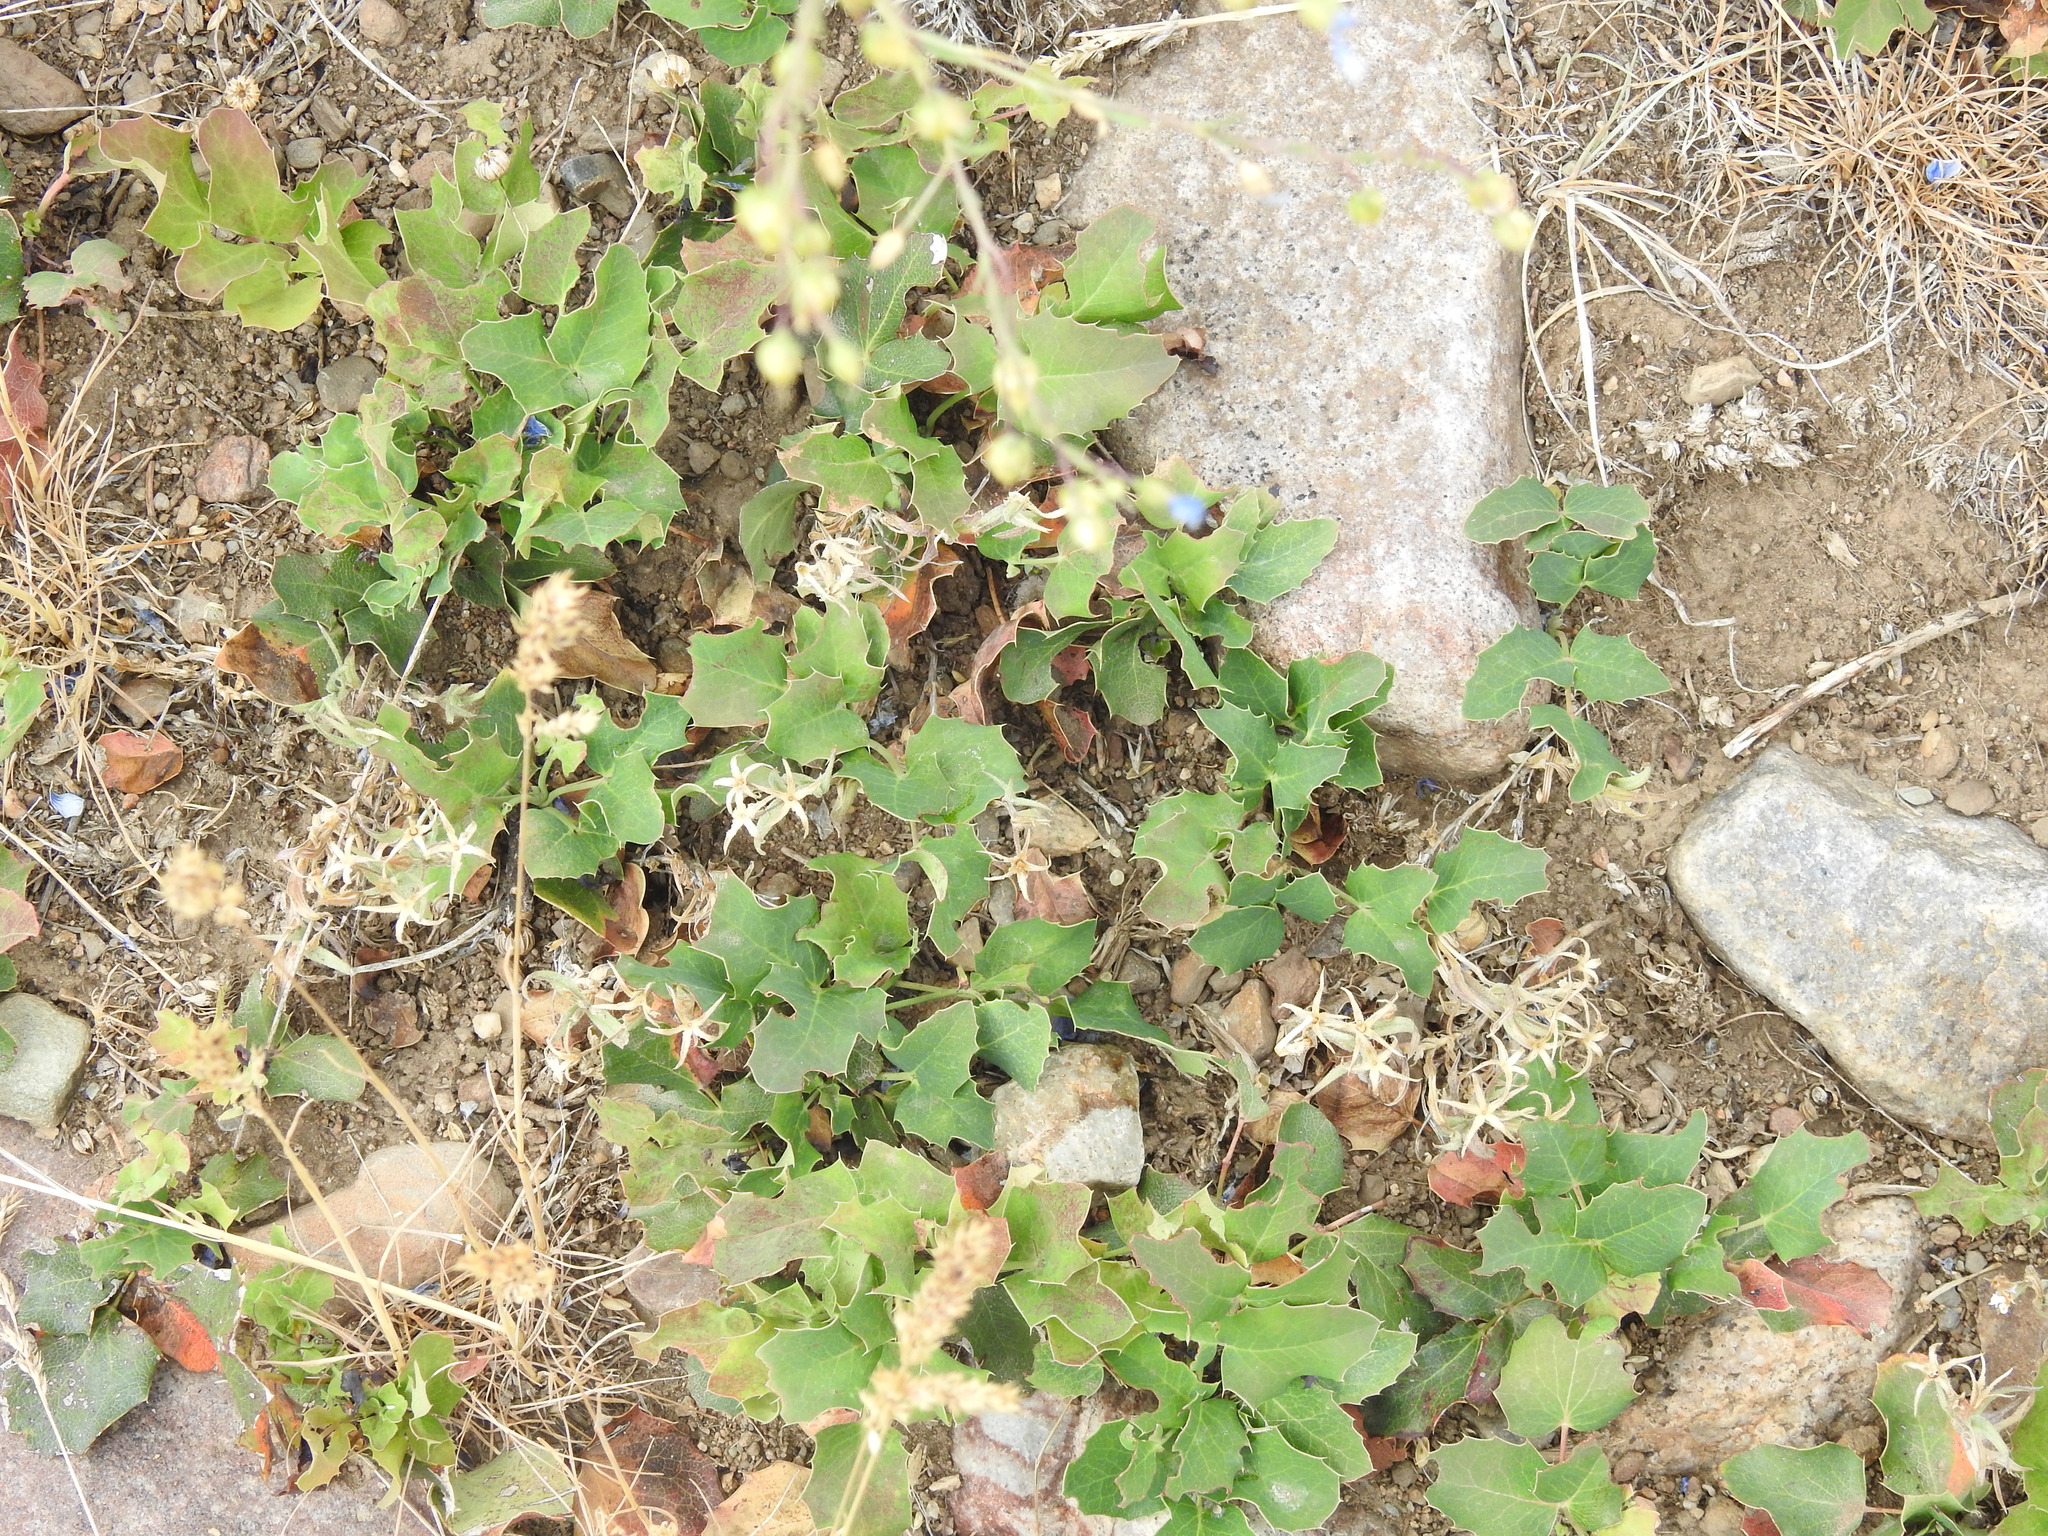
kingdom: Plantae
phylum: Tracheophyta
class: Magnoliopsida
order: Ranunculales
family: Berberidaceae
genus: Mahonia
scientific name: Mahonia repens
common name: Creeping oregon-grape
